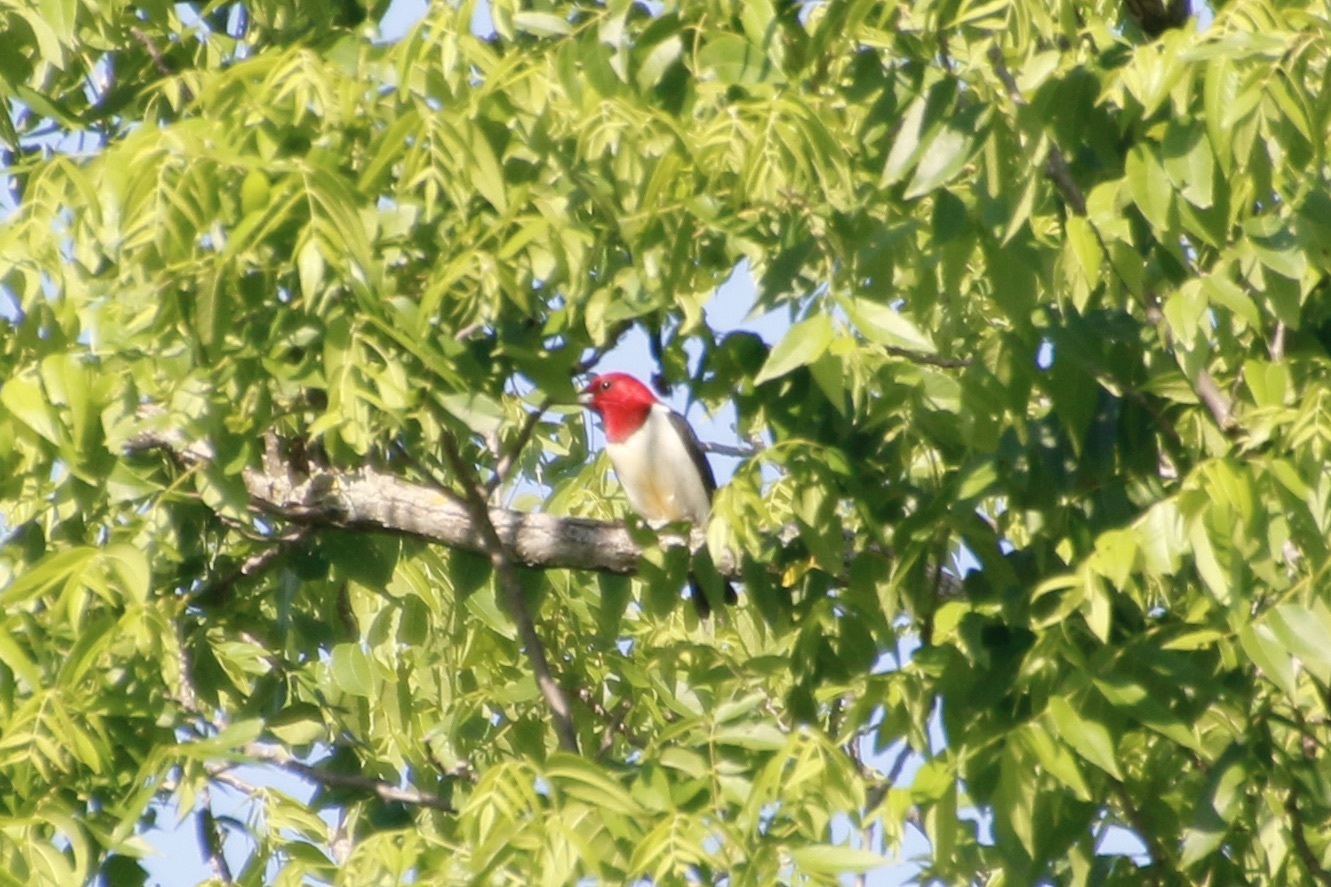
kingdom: Animalia
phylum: Chordata
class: Aves
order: Piciformes
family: Picidae
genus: Melanerpes
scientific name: Melanerpes erythrocephalus
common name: Red-headed woodpecker
